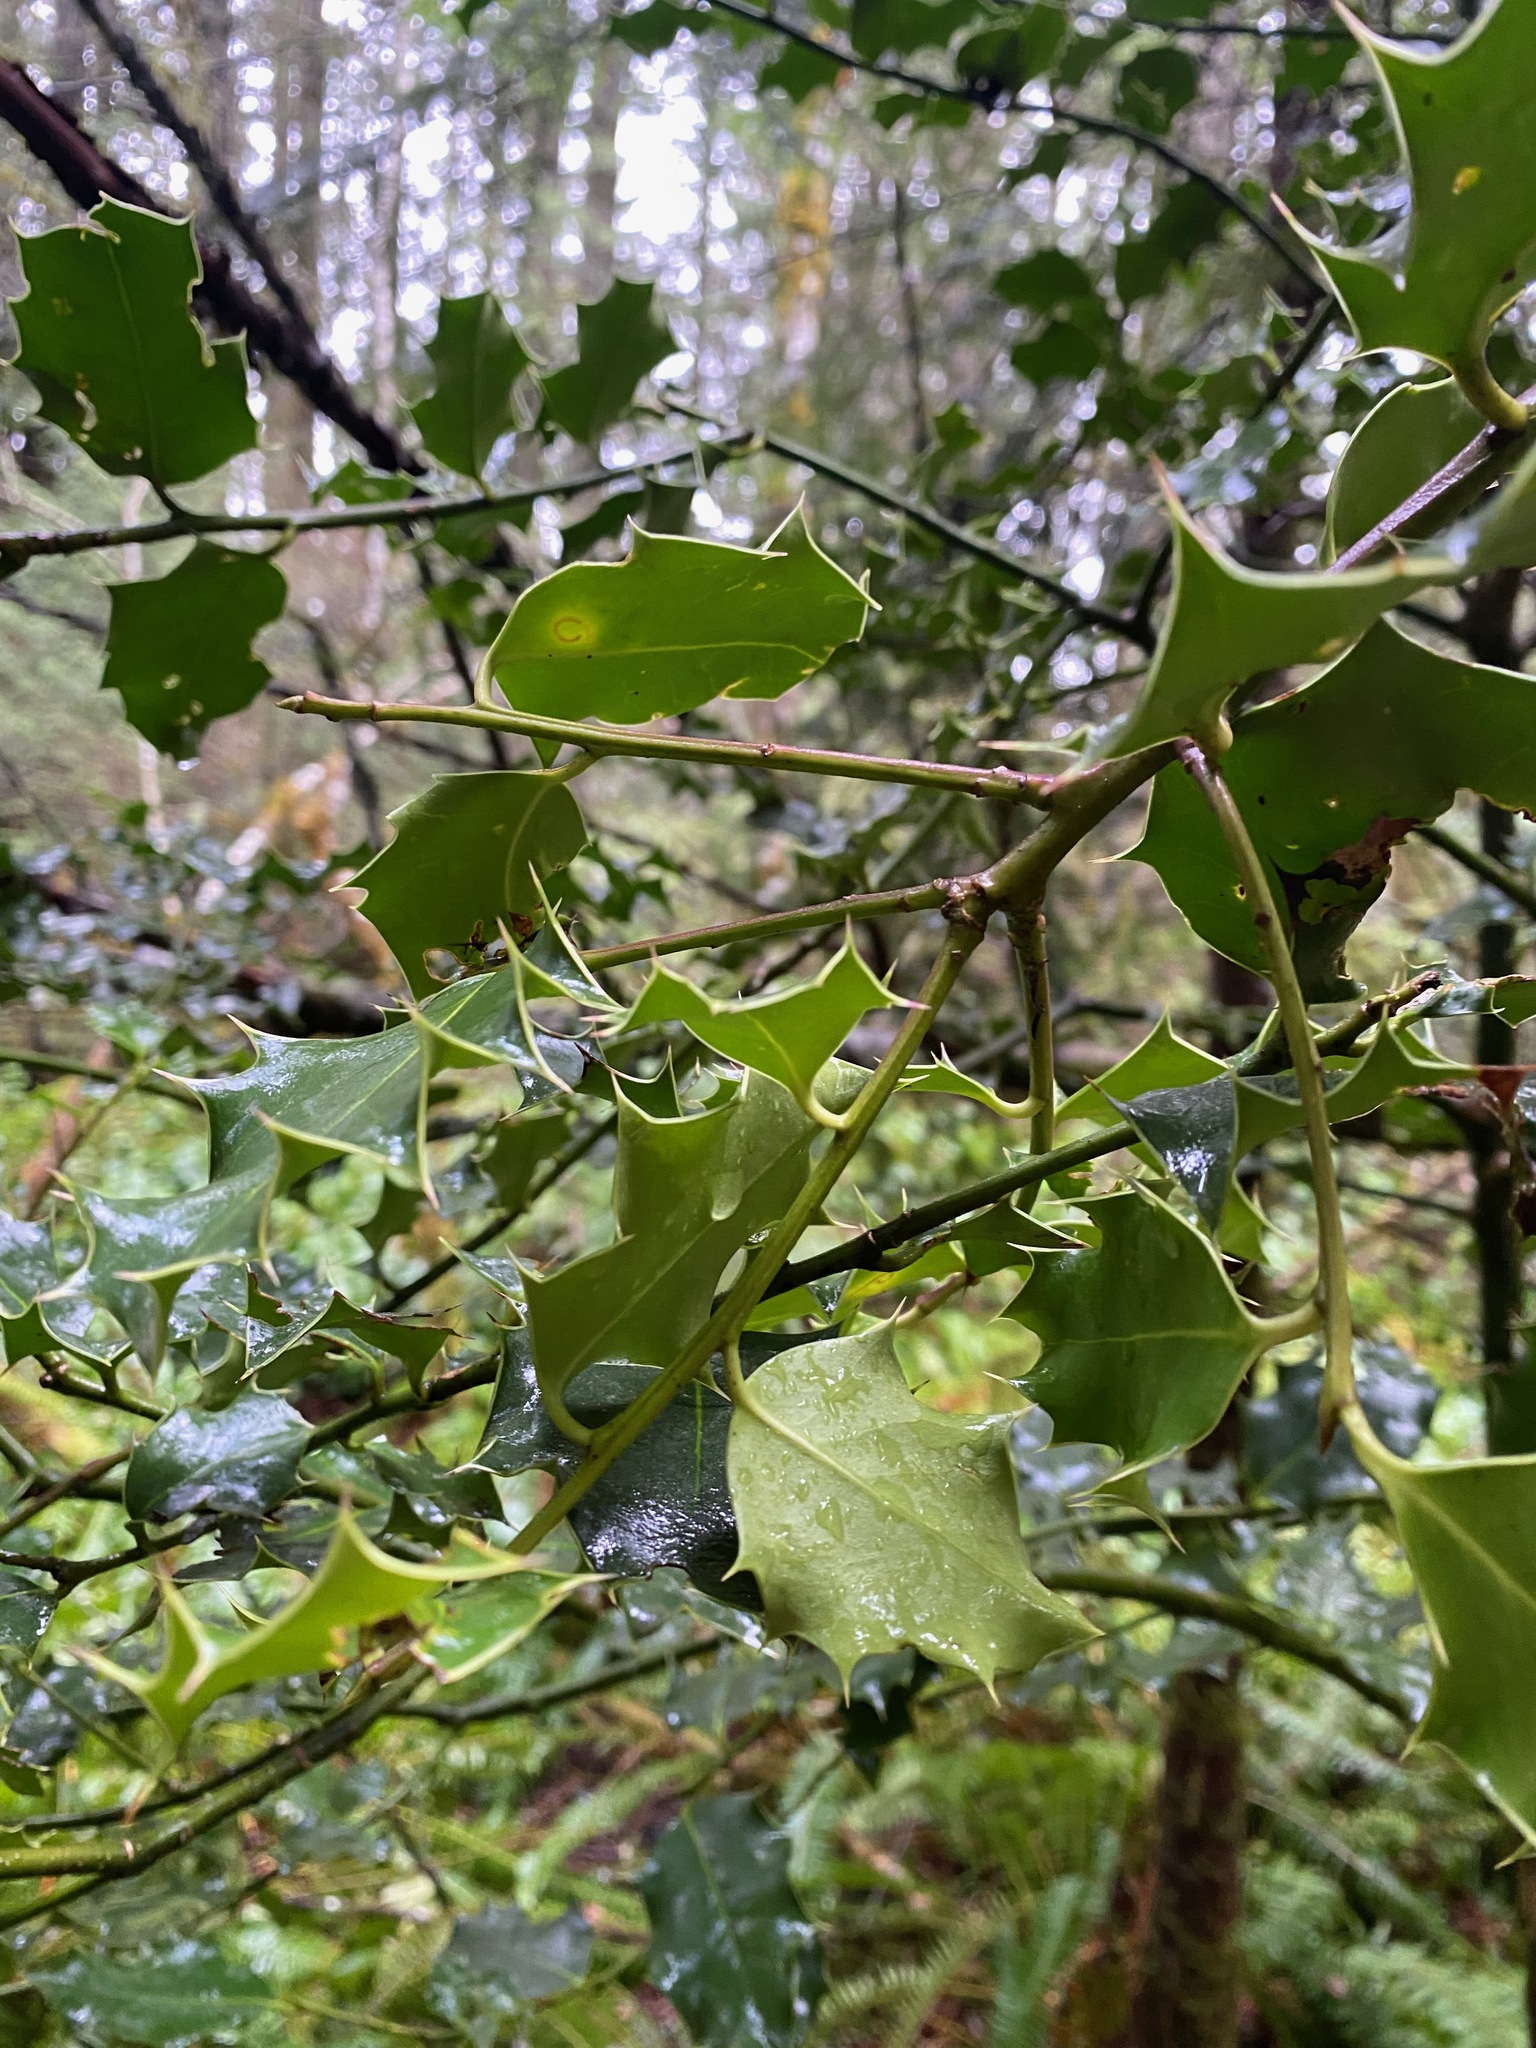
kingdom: Plantae
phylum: Tracheophyta
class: Magnoliopsida
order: Aquifoliales
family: Aquifoliaceae
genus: Ilex
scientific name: Ilex aquifolium
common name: English holly
